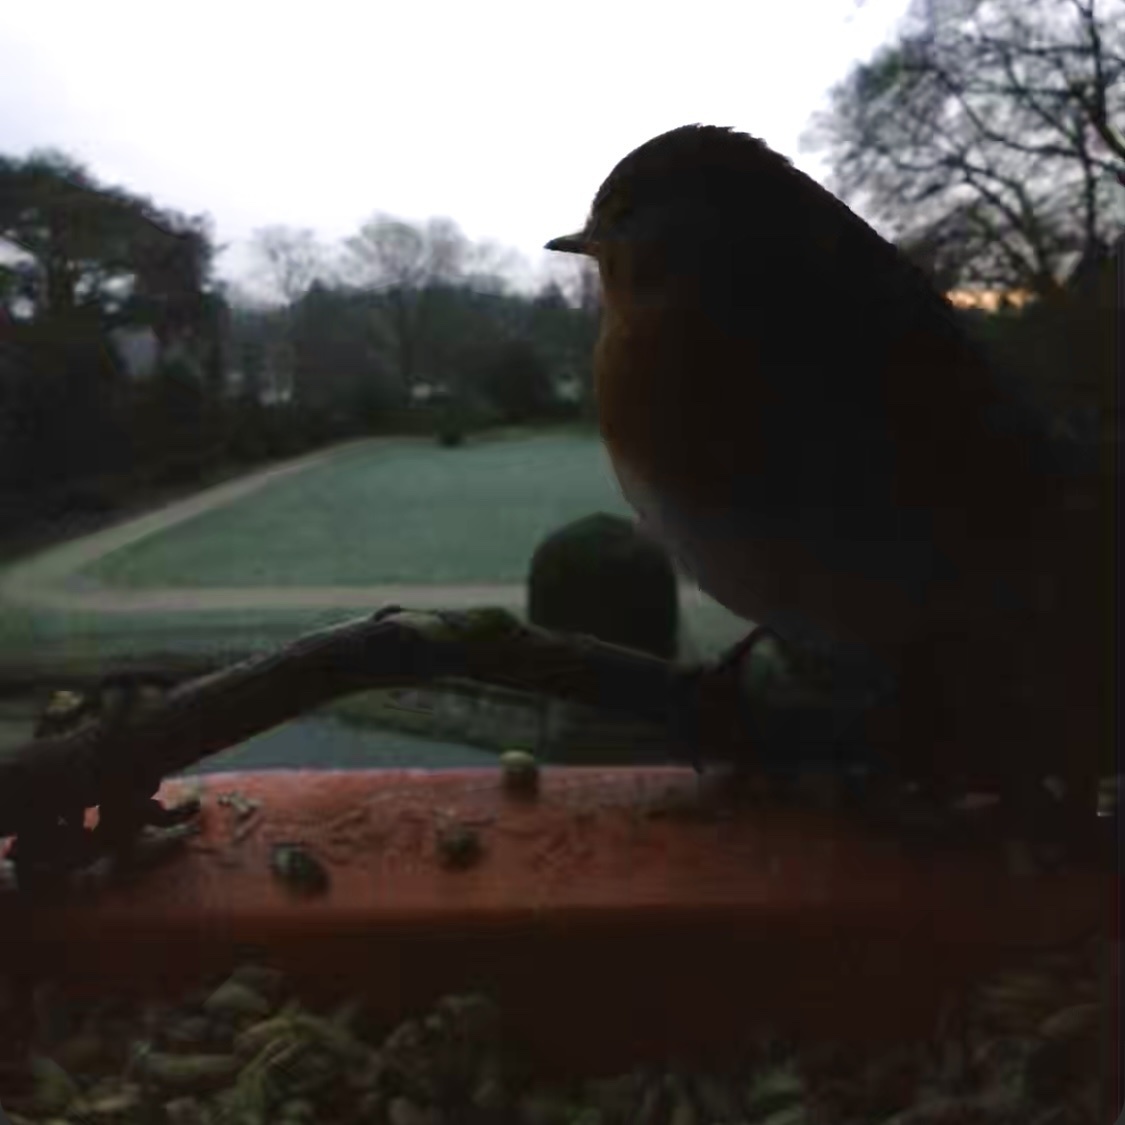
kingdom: Animalia
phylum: Chordata
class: Aves
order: Passeriformes
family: Muscicapidae
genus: Erithacus
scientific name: Erithacus rubecula
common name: European robin
